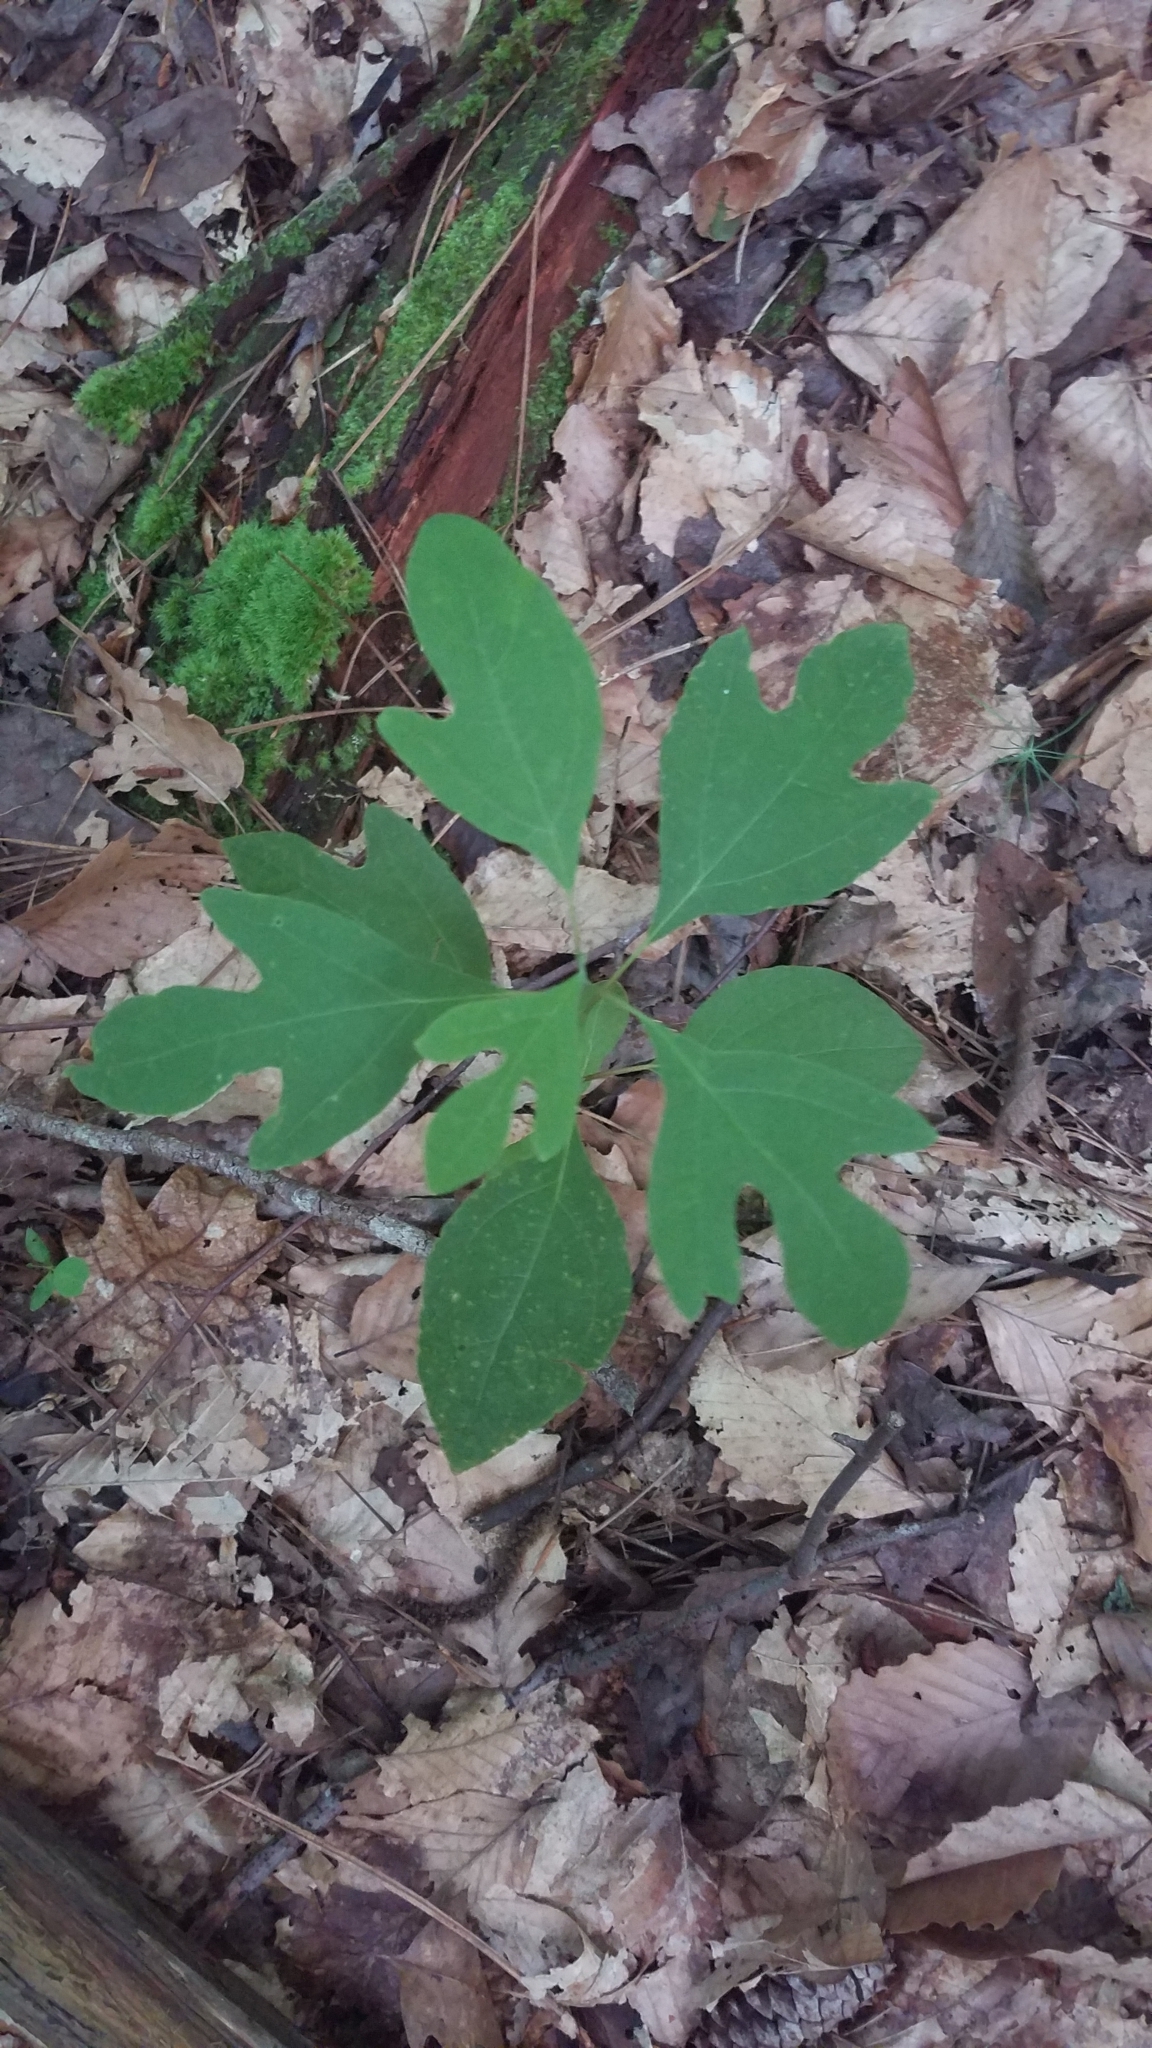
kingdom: Plantae
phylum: Tracheophyta
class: Magnoliopsida
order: Laurales
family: Lauraceae
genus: Sassafras
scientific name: Sassafras albidum
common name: Sassafras
